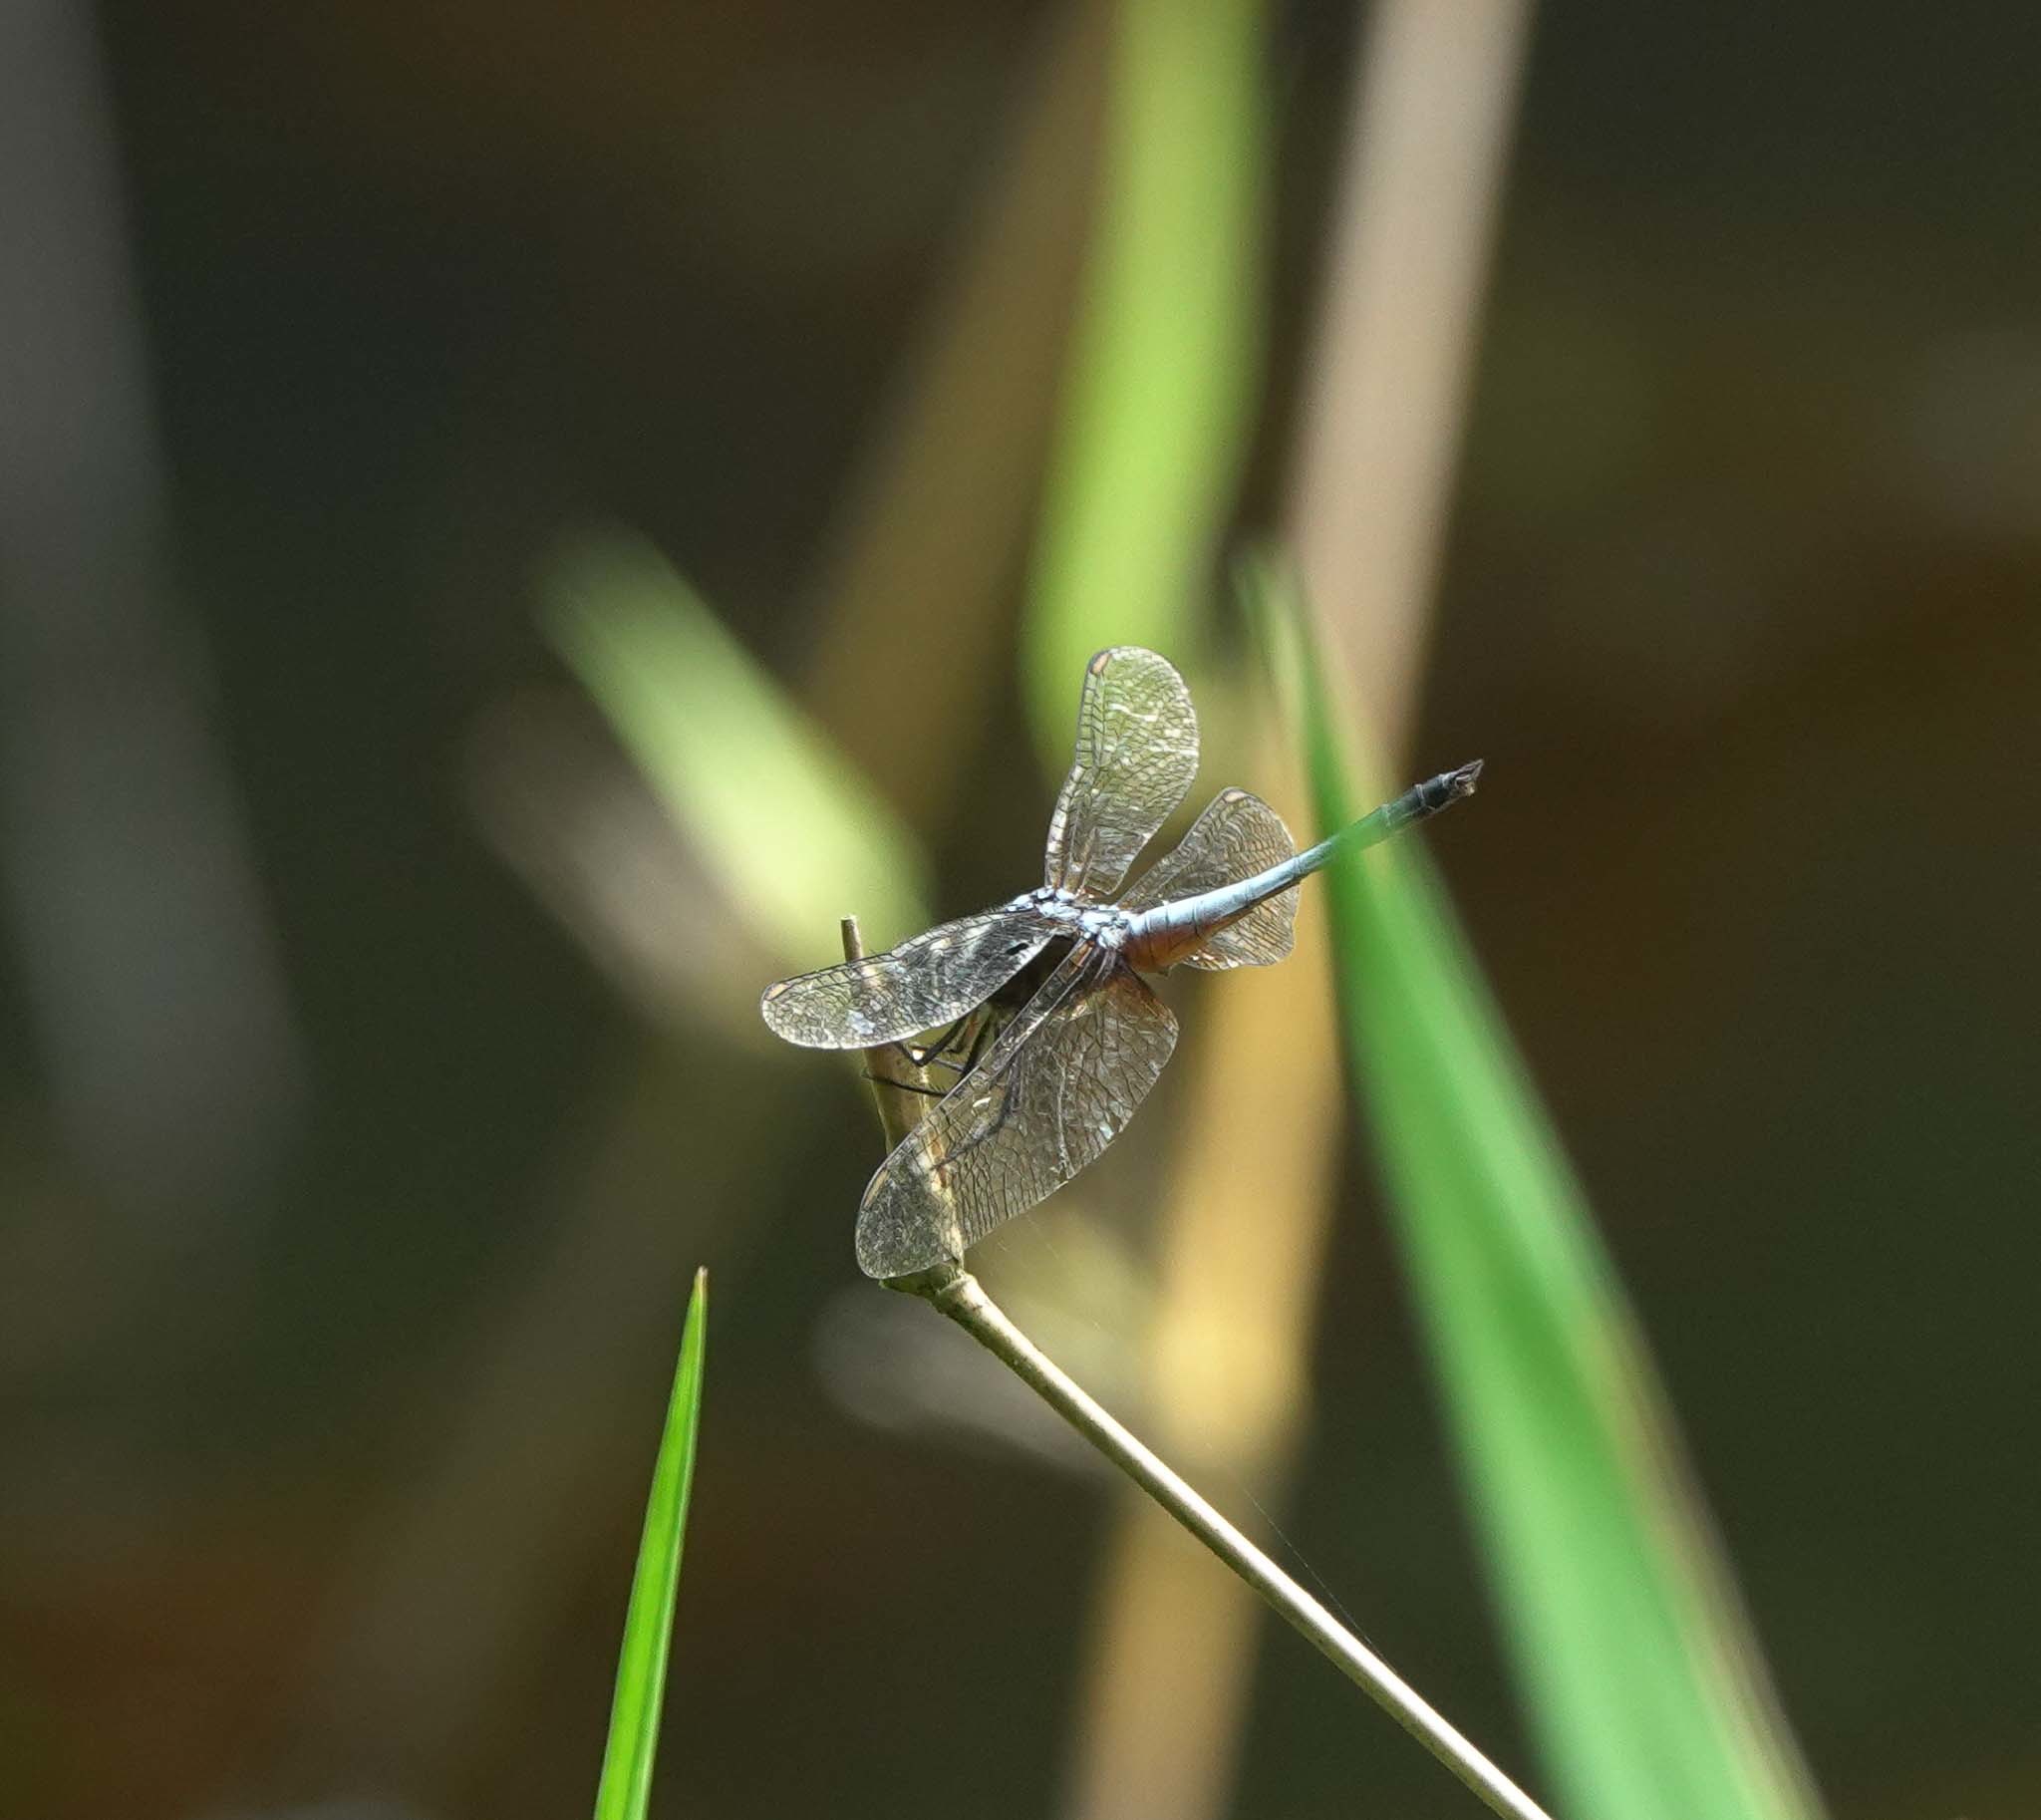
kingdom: Animalia
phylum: Arthropoda
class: Insecta
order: Odonata
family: Libellulidae
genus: Brachydiplax
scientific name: Brachydiplax chalybea
